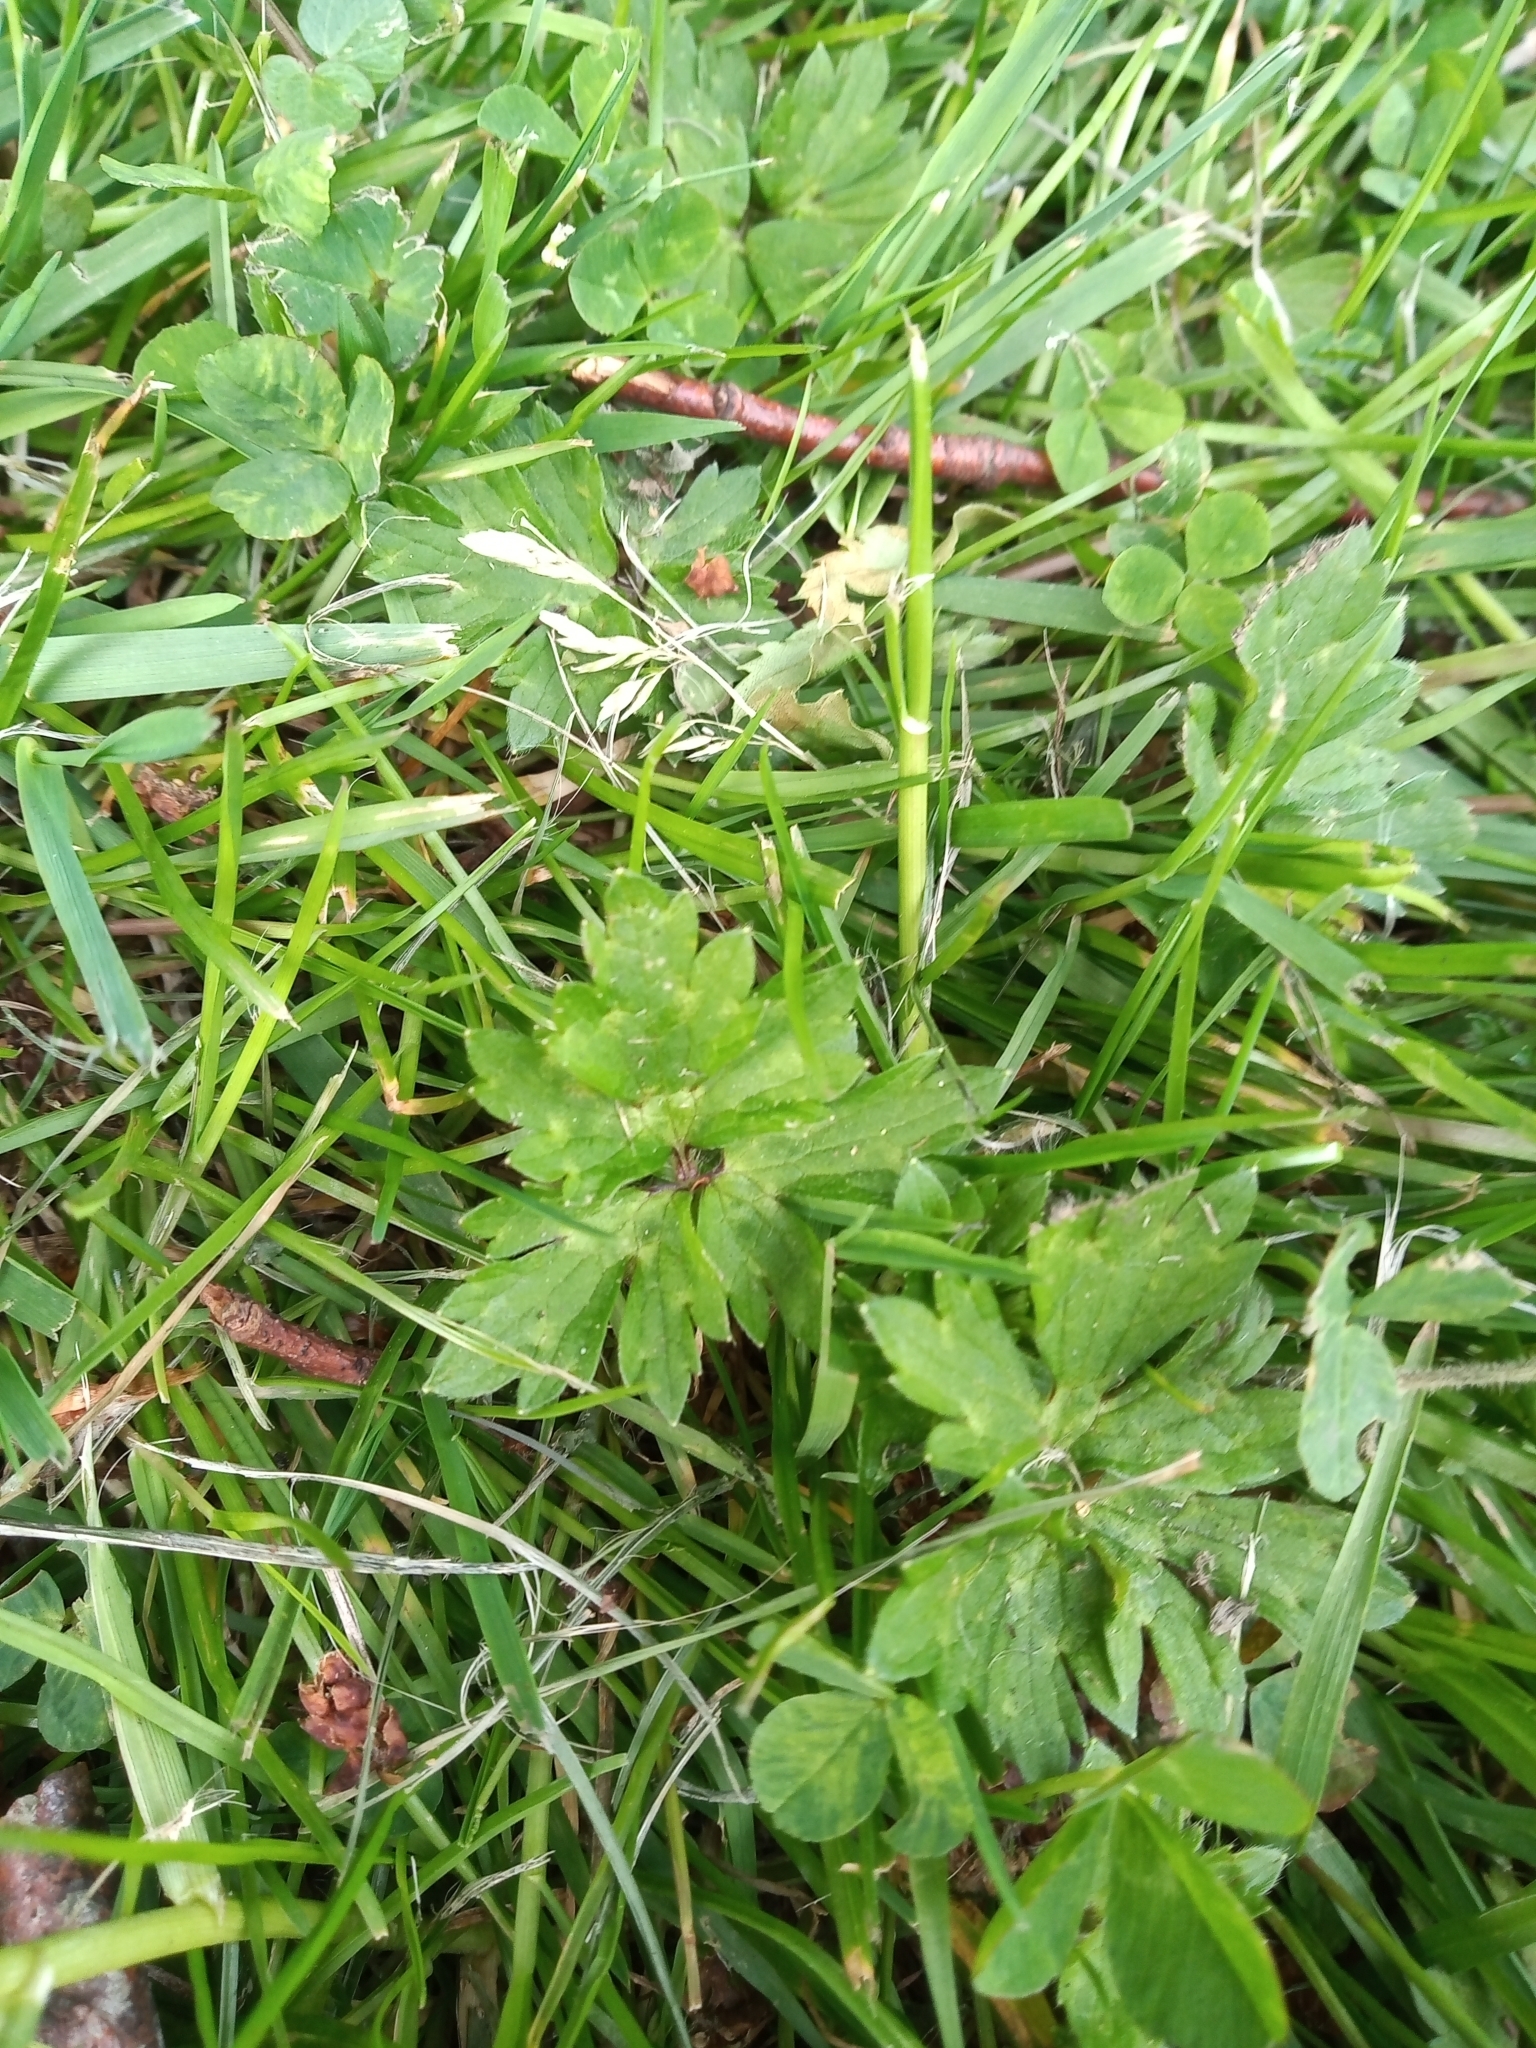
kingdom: Plantae
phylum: Tracheophyta
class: Magnoliopsida
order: Ranunculales
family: Ranunculaceae
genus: Ranunculus
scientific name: Ranunculus repens
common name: Creeping buttercup
